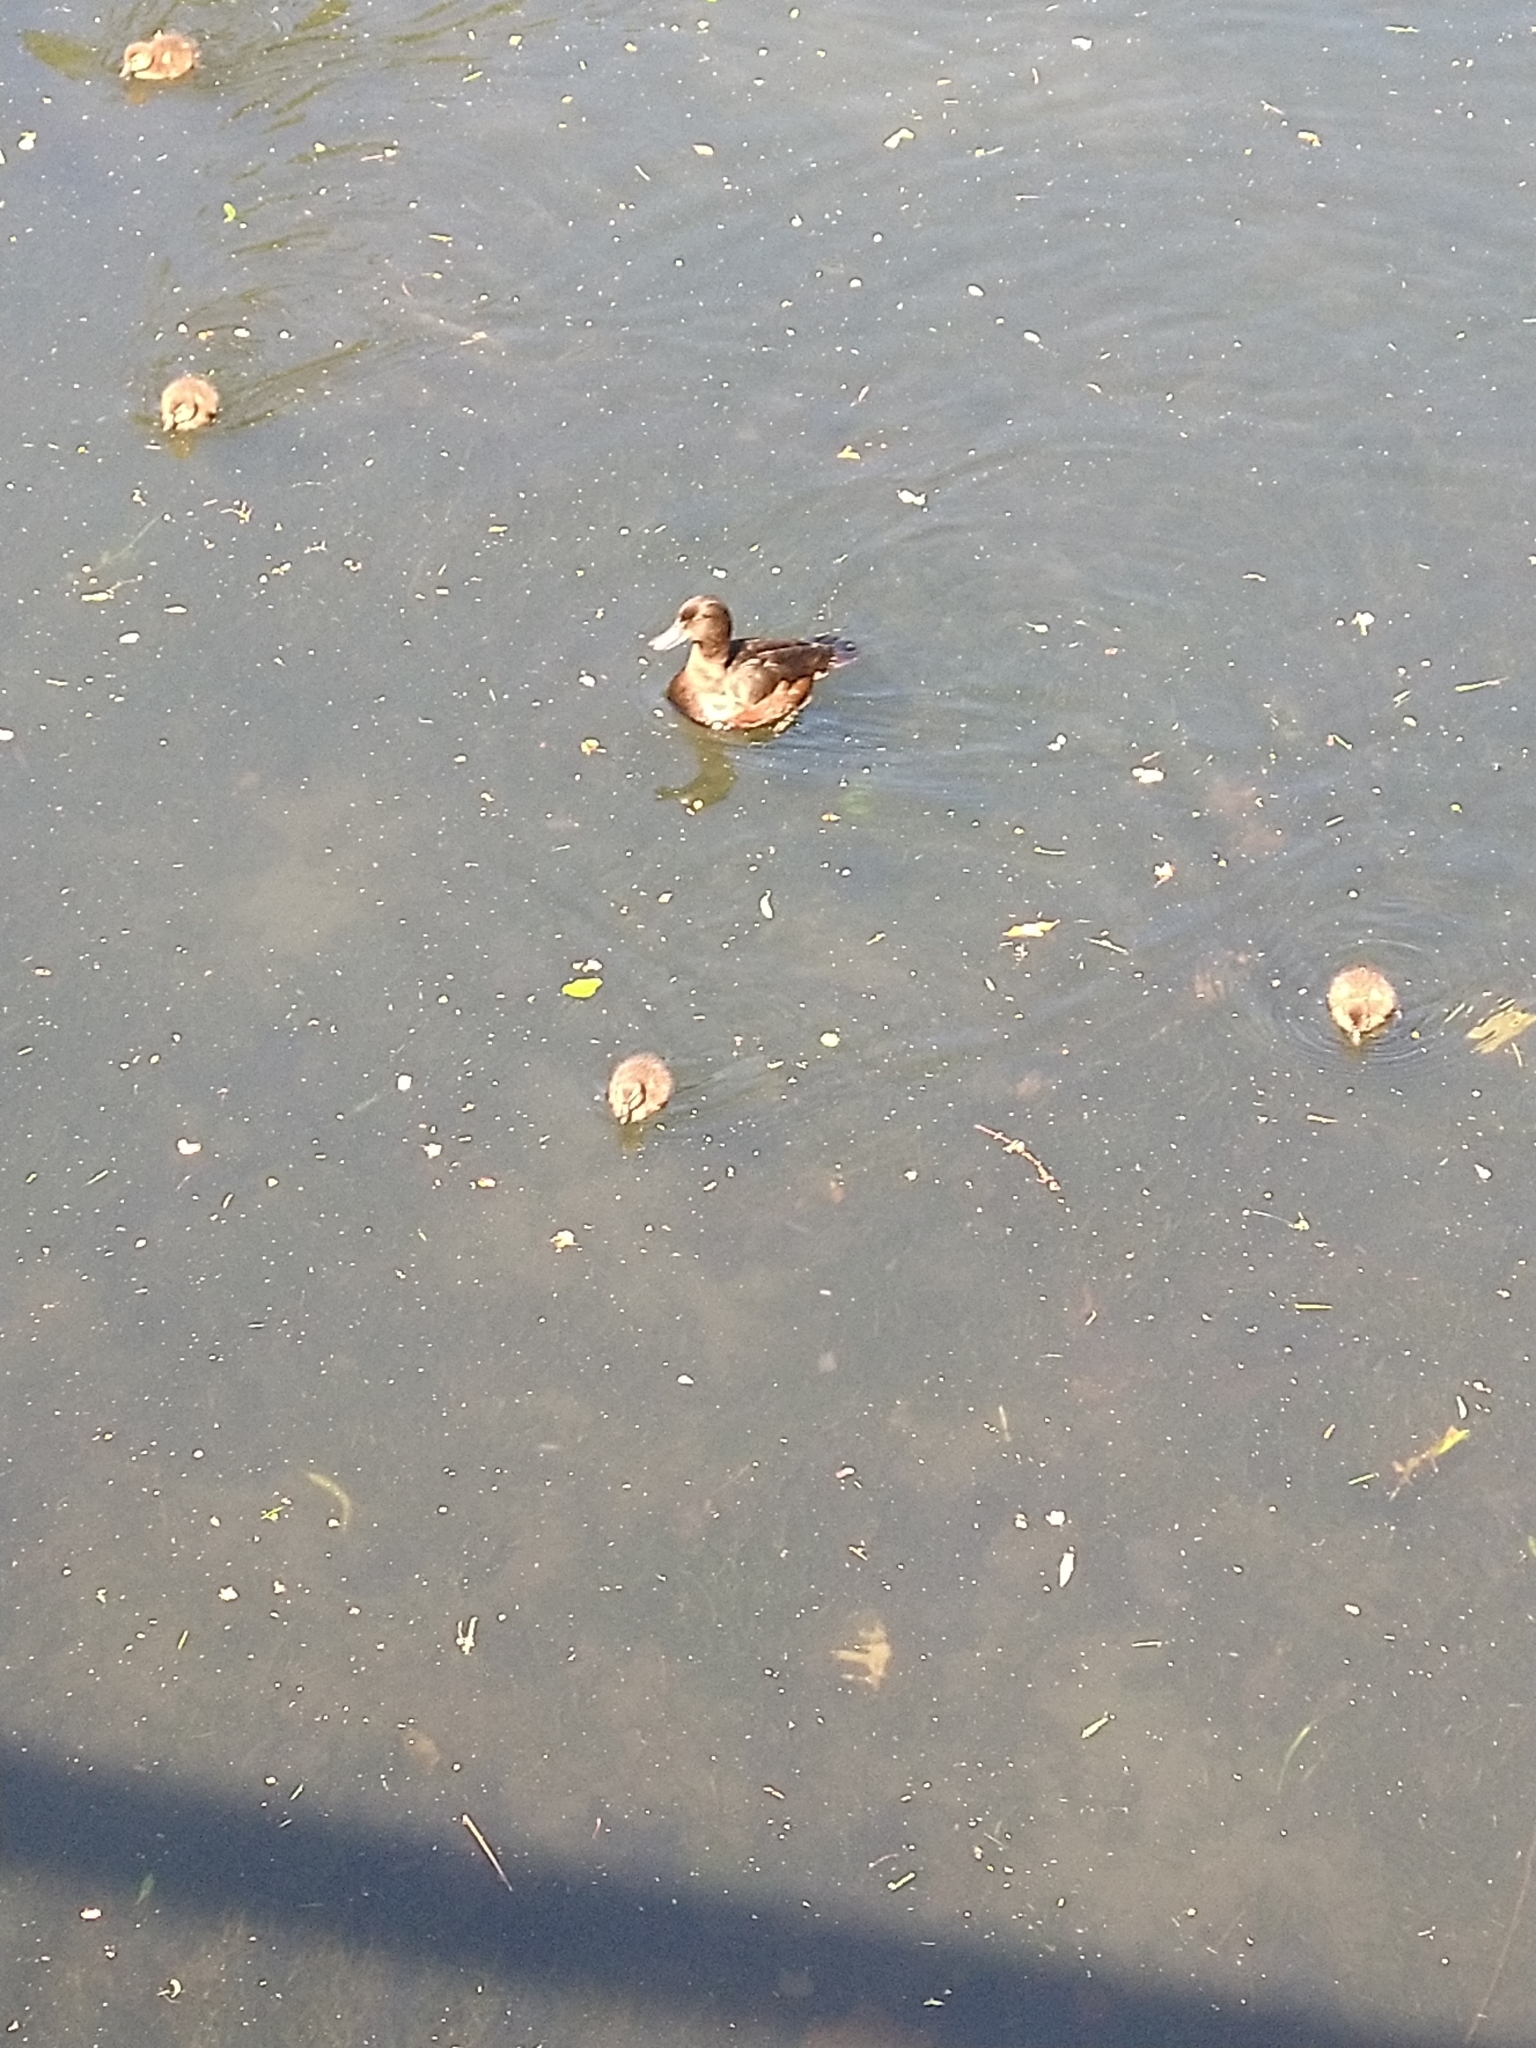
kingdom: Animalia
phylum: Chordata
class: Aves
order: Anseriformes
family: Anatidae
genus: Aythya
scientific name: Aythya novaeseelandiae
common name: New zealand scaup
